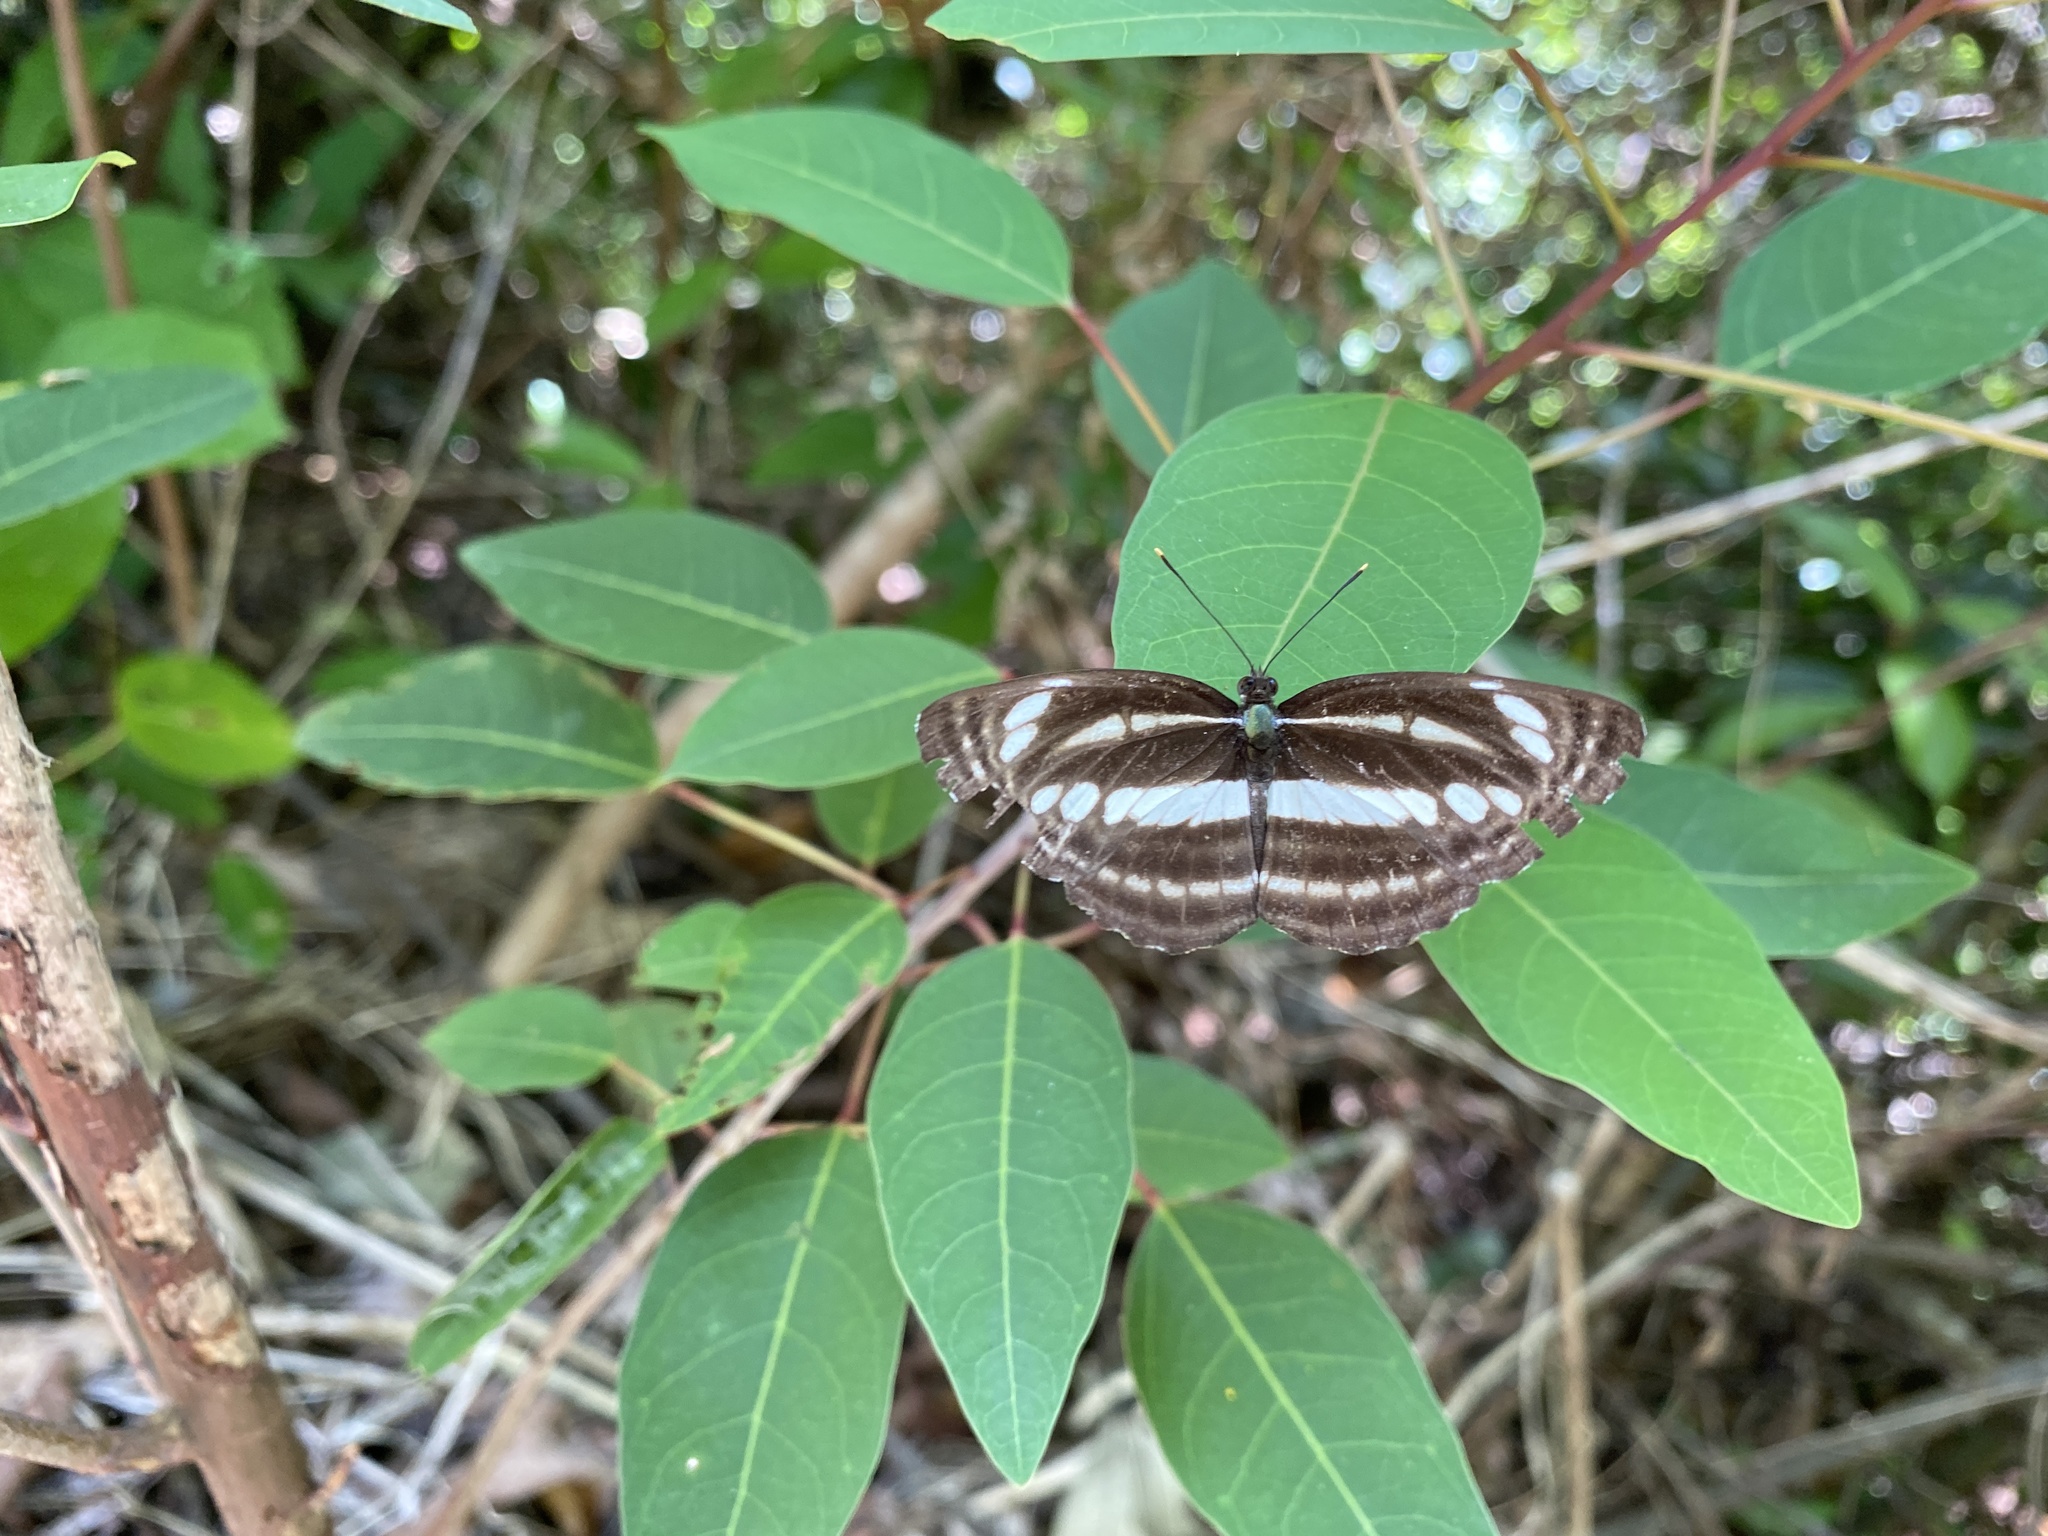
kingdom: Animalia
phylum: Arthropoda
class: Insecta
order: Lepidoptera
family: Nymphalidae
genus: Neptis
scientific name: Neptis clinia
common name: Southern sullied sailer
